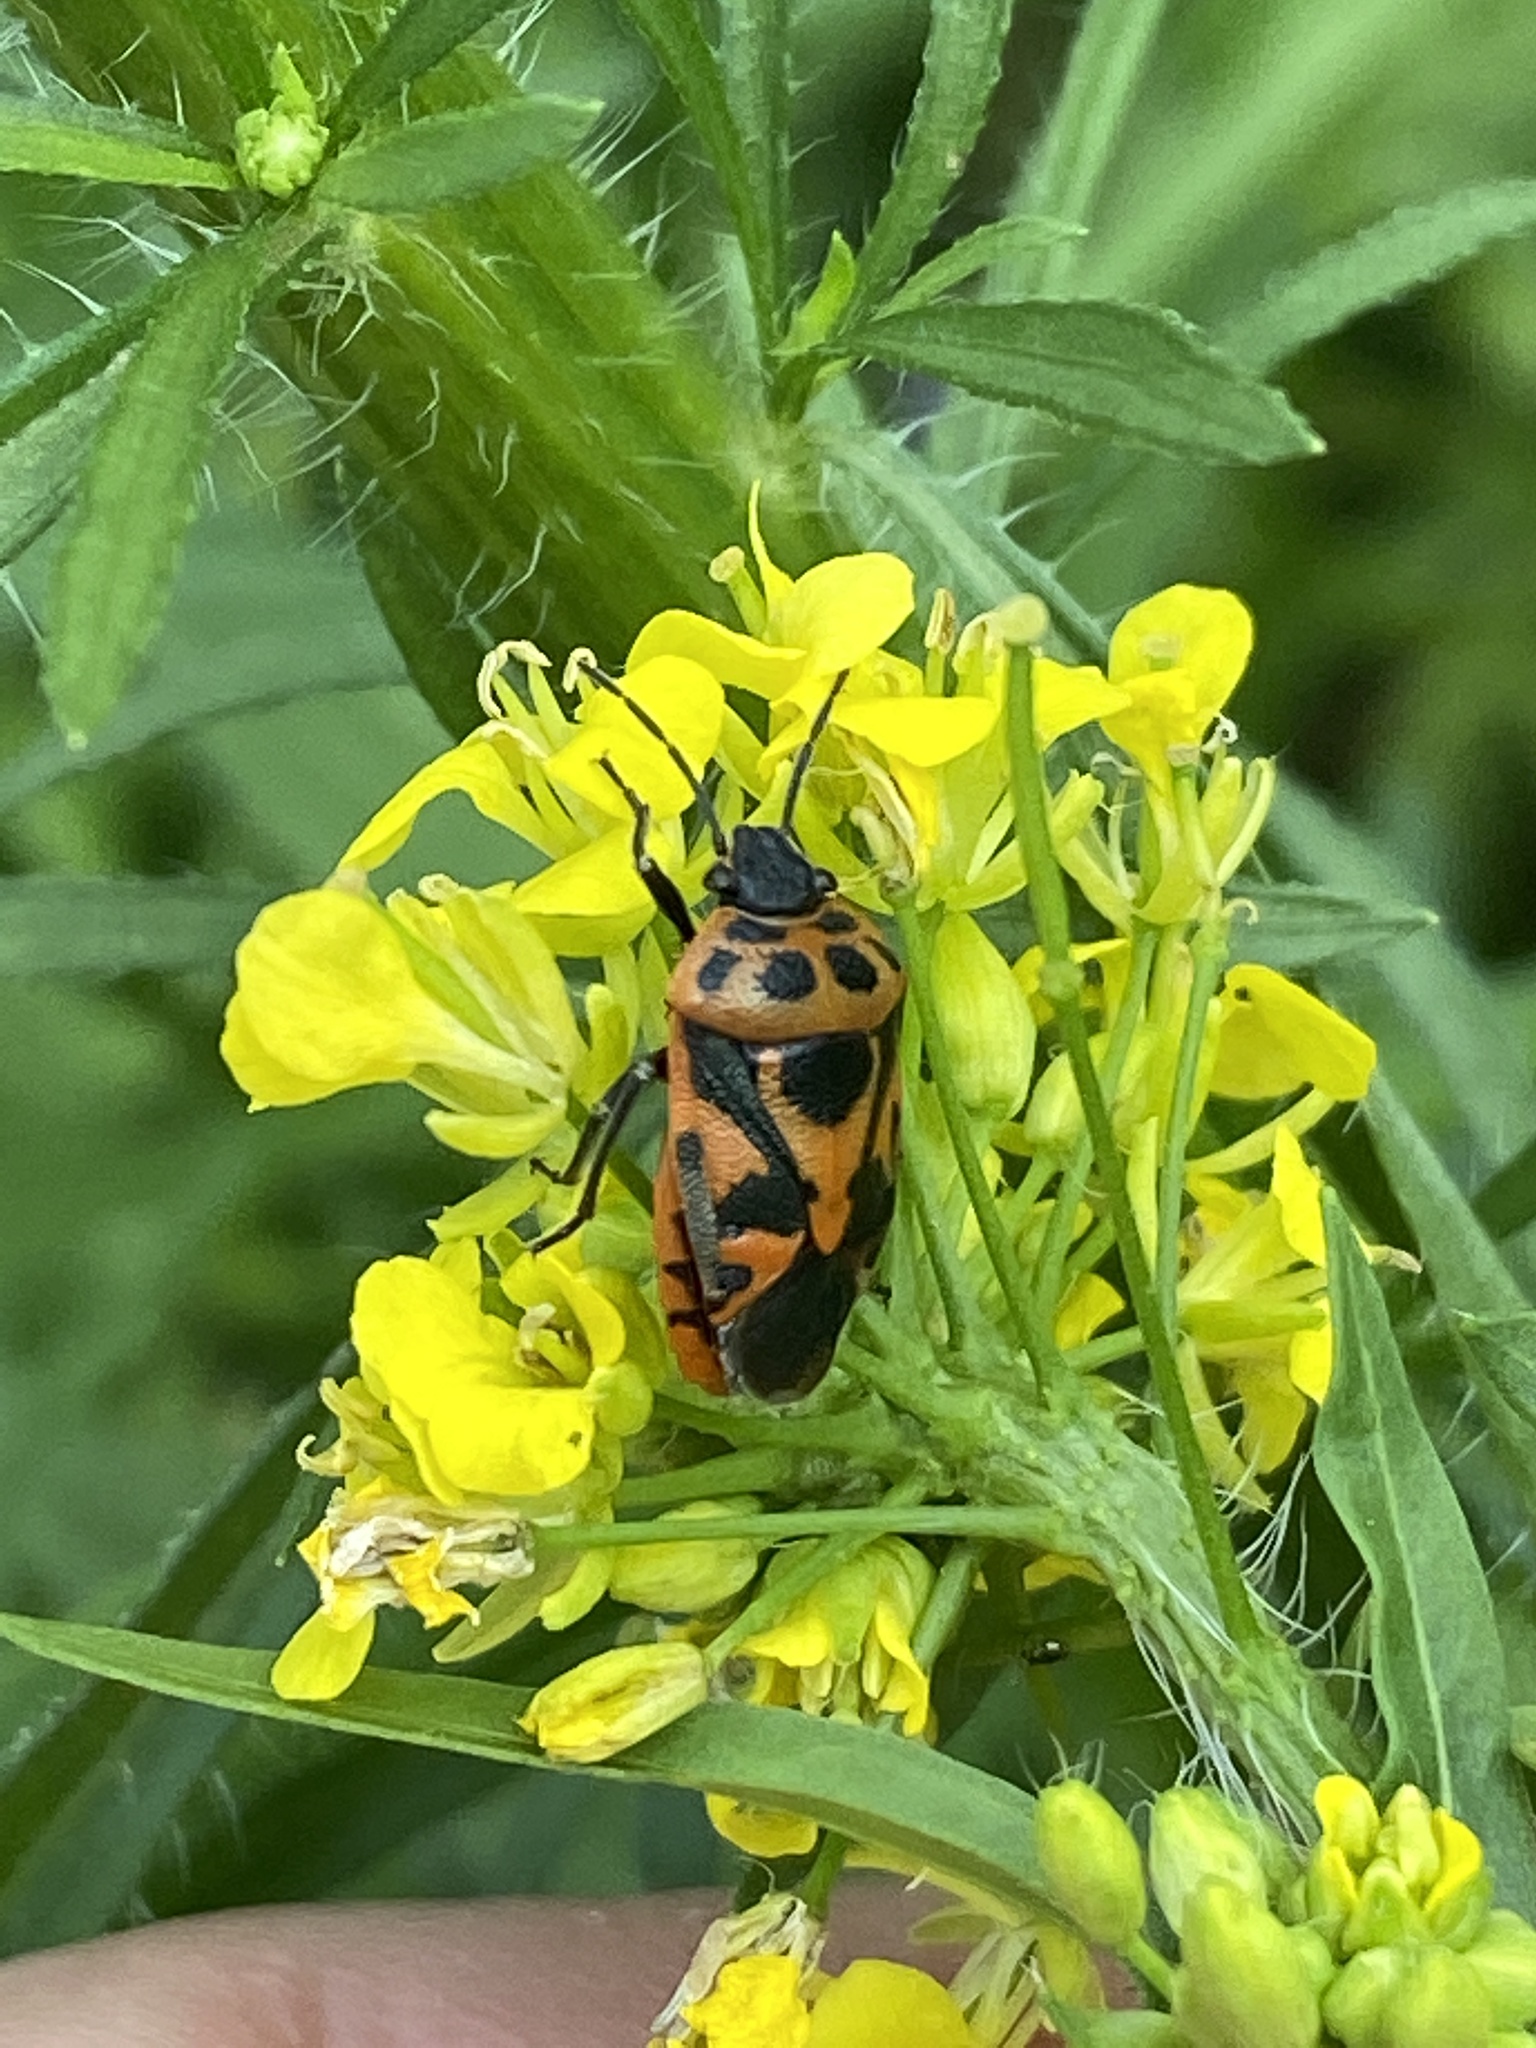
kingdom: Animalia
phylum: Arthropoda
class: Insecta
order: Hemiptera
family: Pentatomidae
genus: Eurydema
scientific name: Eurydema ornata
